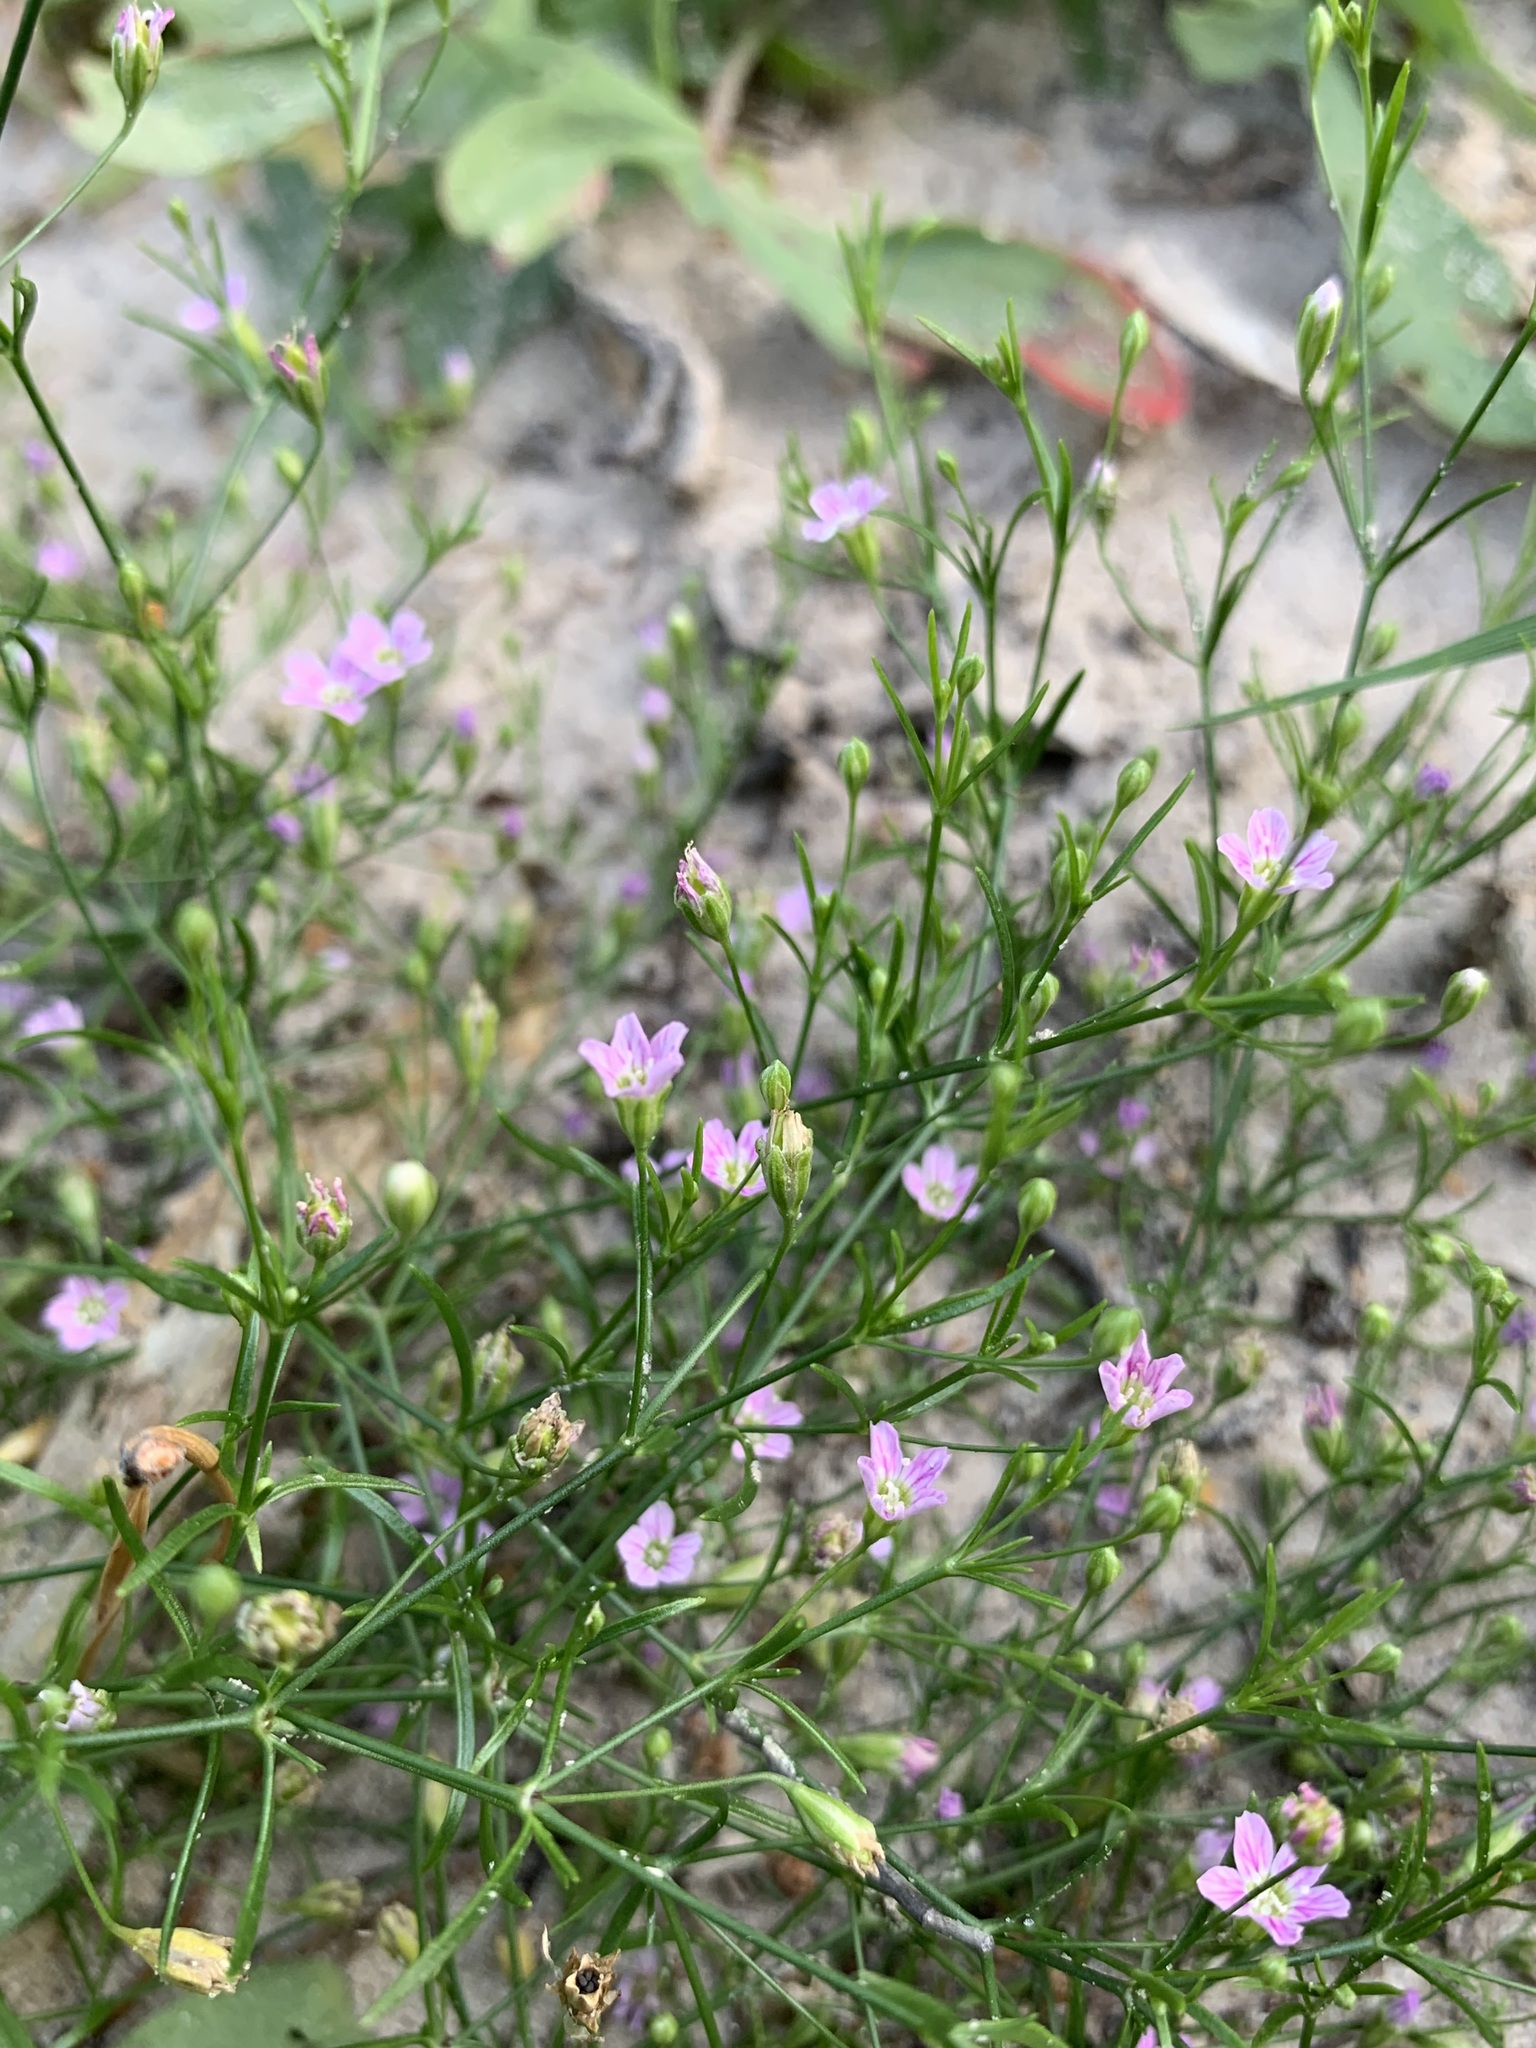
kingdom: Plantae
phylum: Tracheophyta
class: Magnoliopsida
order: Caryophyllales
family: Caryophyllaceae
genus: Psammophiliella
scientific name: Psammophiliella muralis
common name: Cushion baby's-breath
